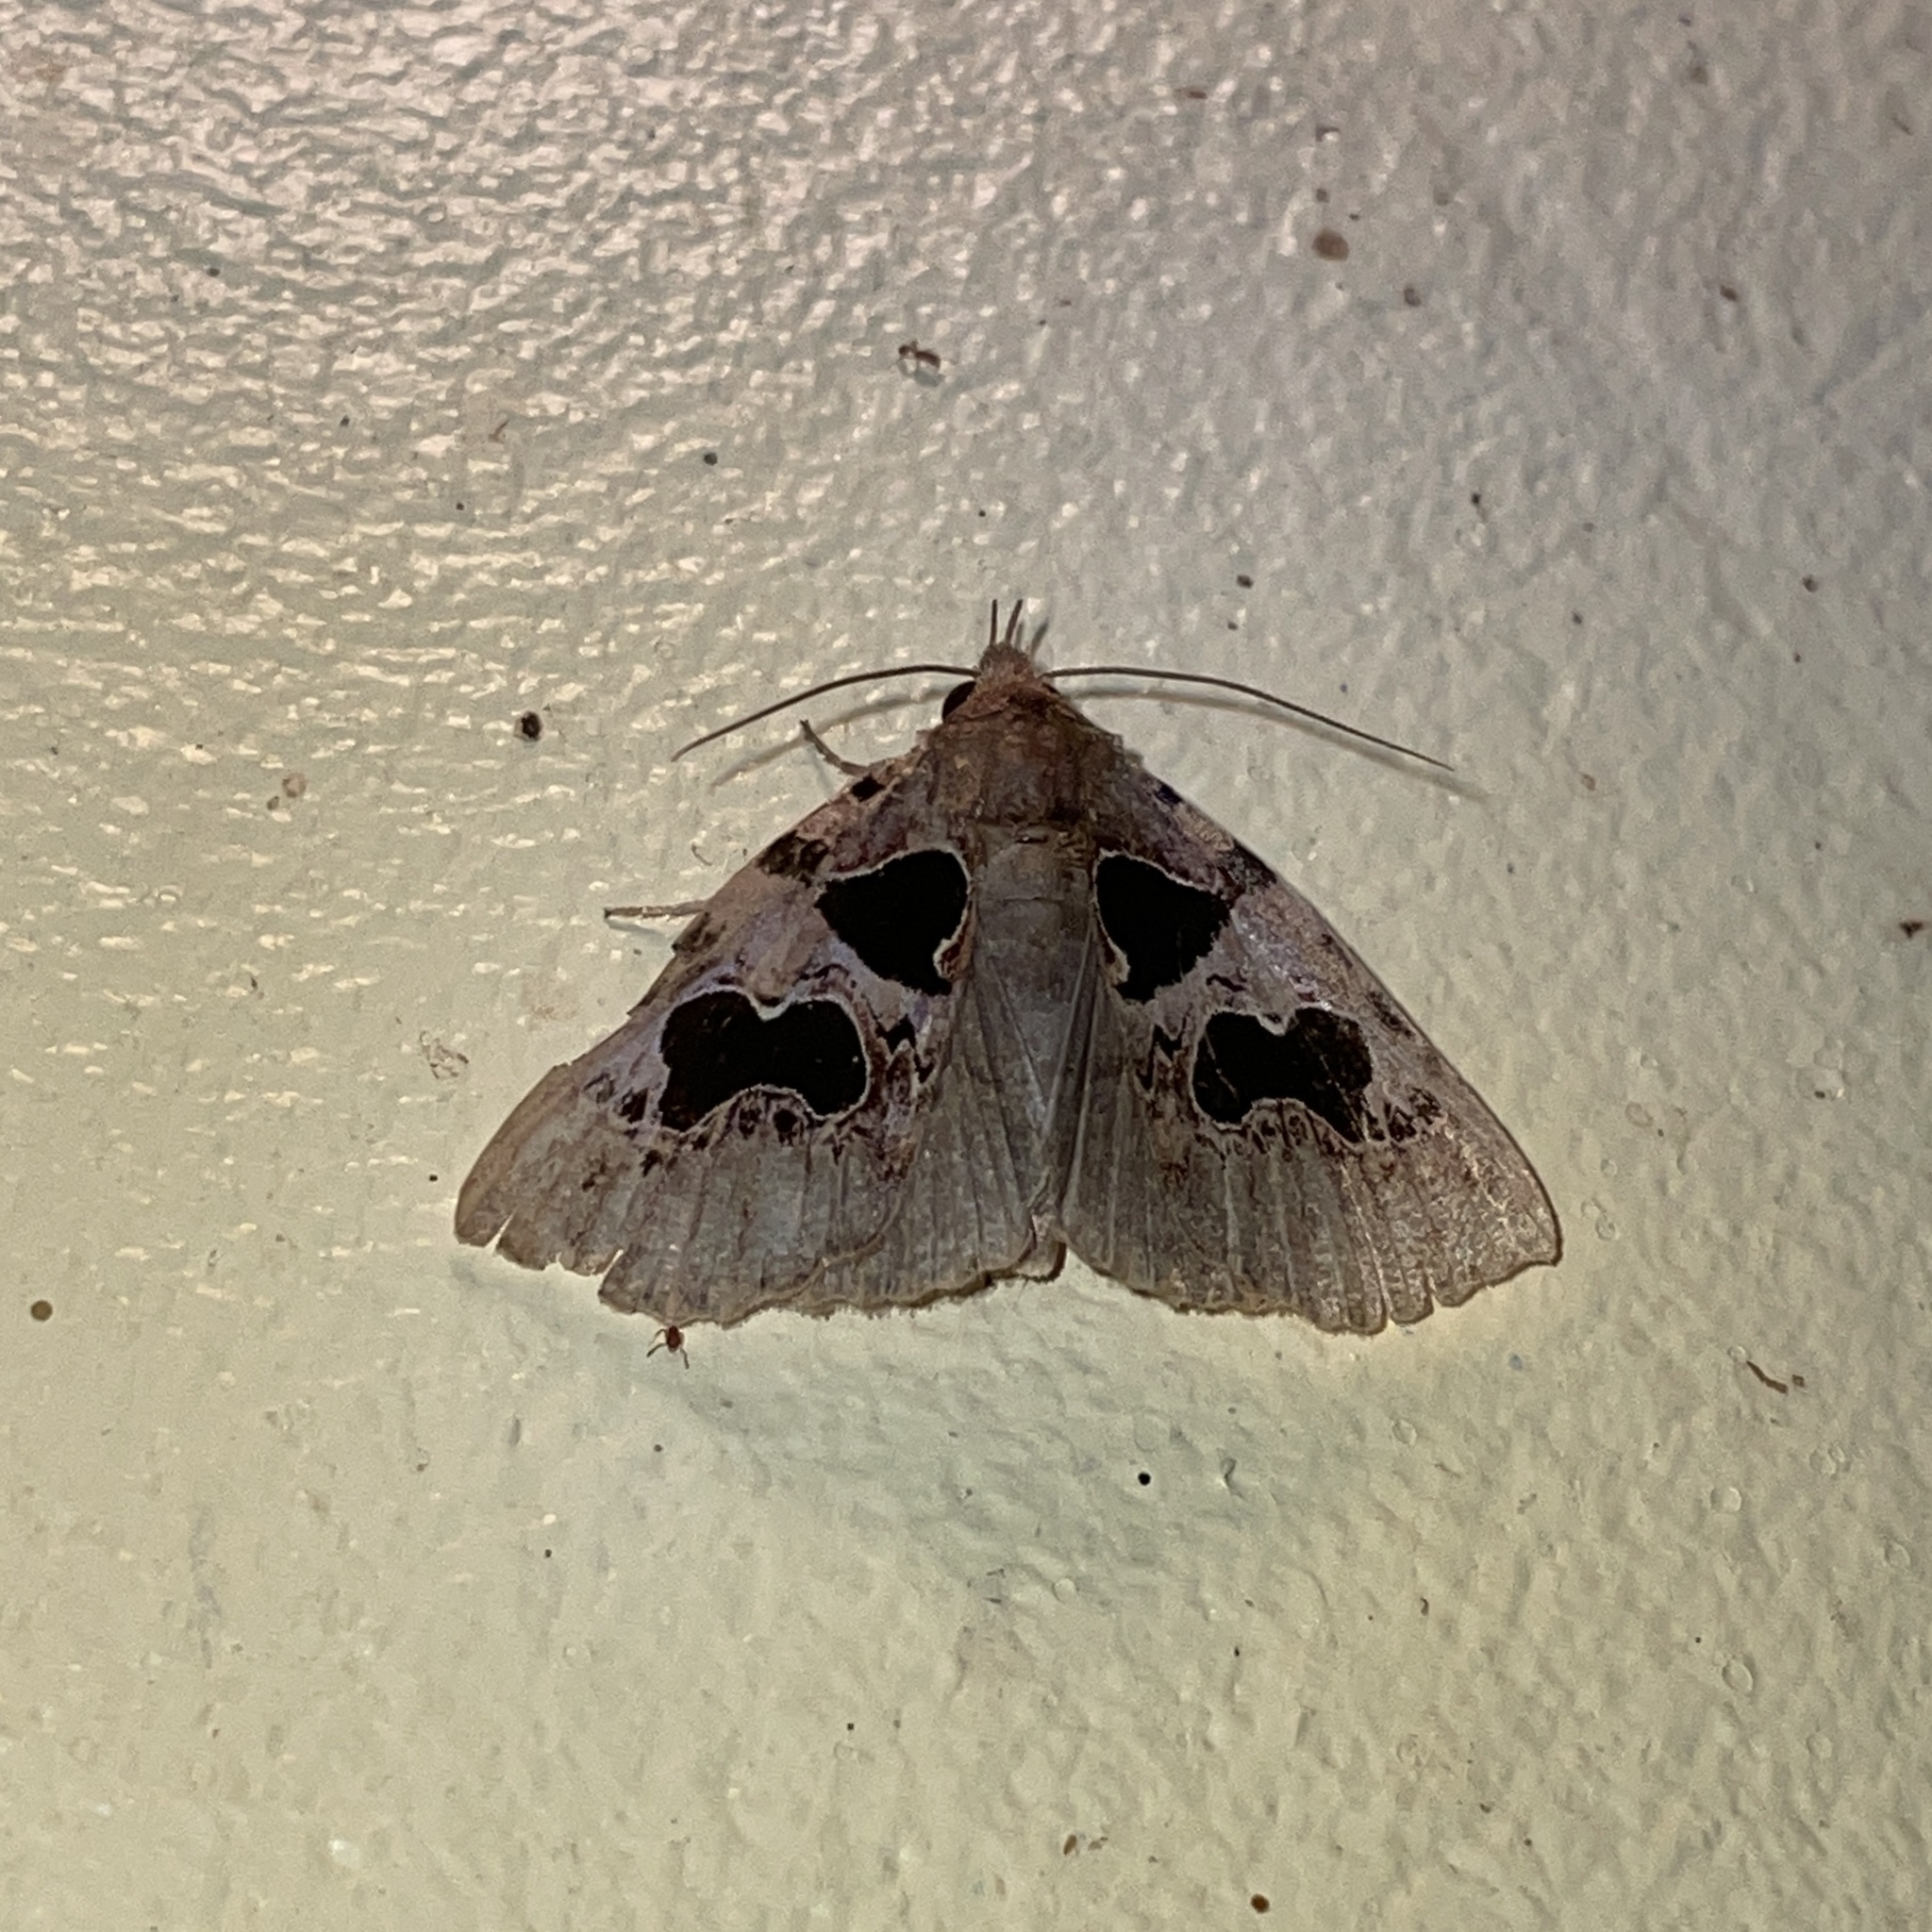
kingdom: Animalia
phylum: Arthropoda
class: Insecta
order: Lepidoptera
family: Erebidae
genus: Athyrma
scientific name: Athyrma adjutrix
